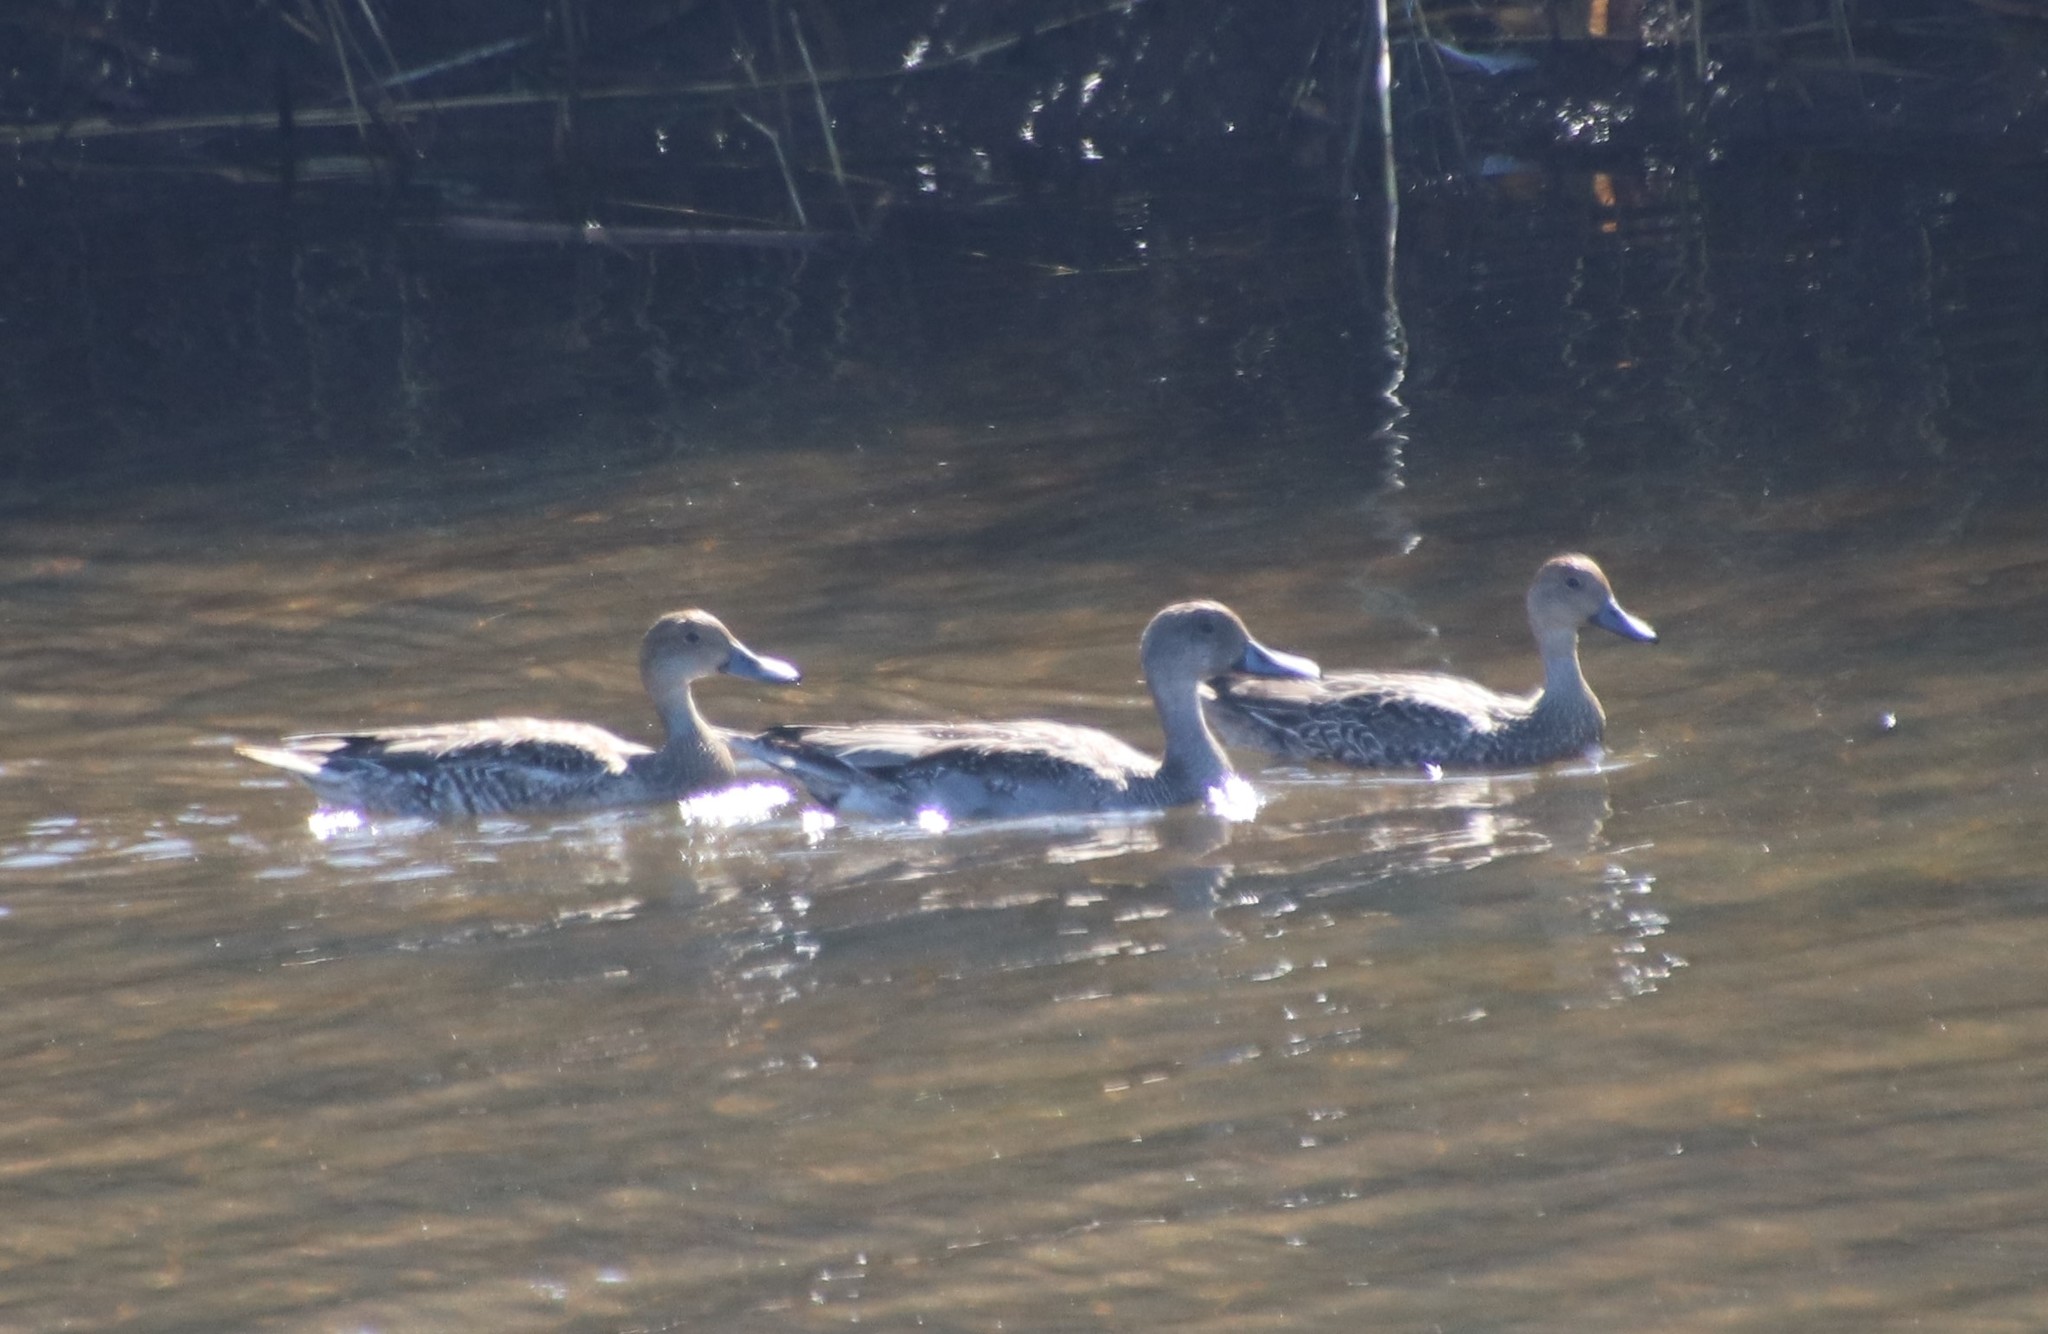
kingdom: Animalia
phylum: Chordata
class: Aves
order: Anseriformes
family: Anatidae
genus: Anas
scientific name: Anas acuta
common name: Northern pintail
